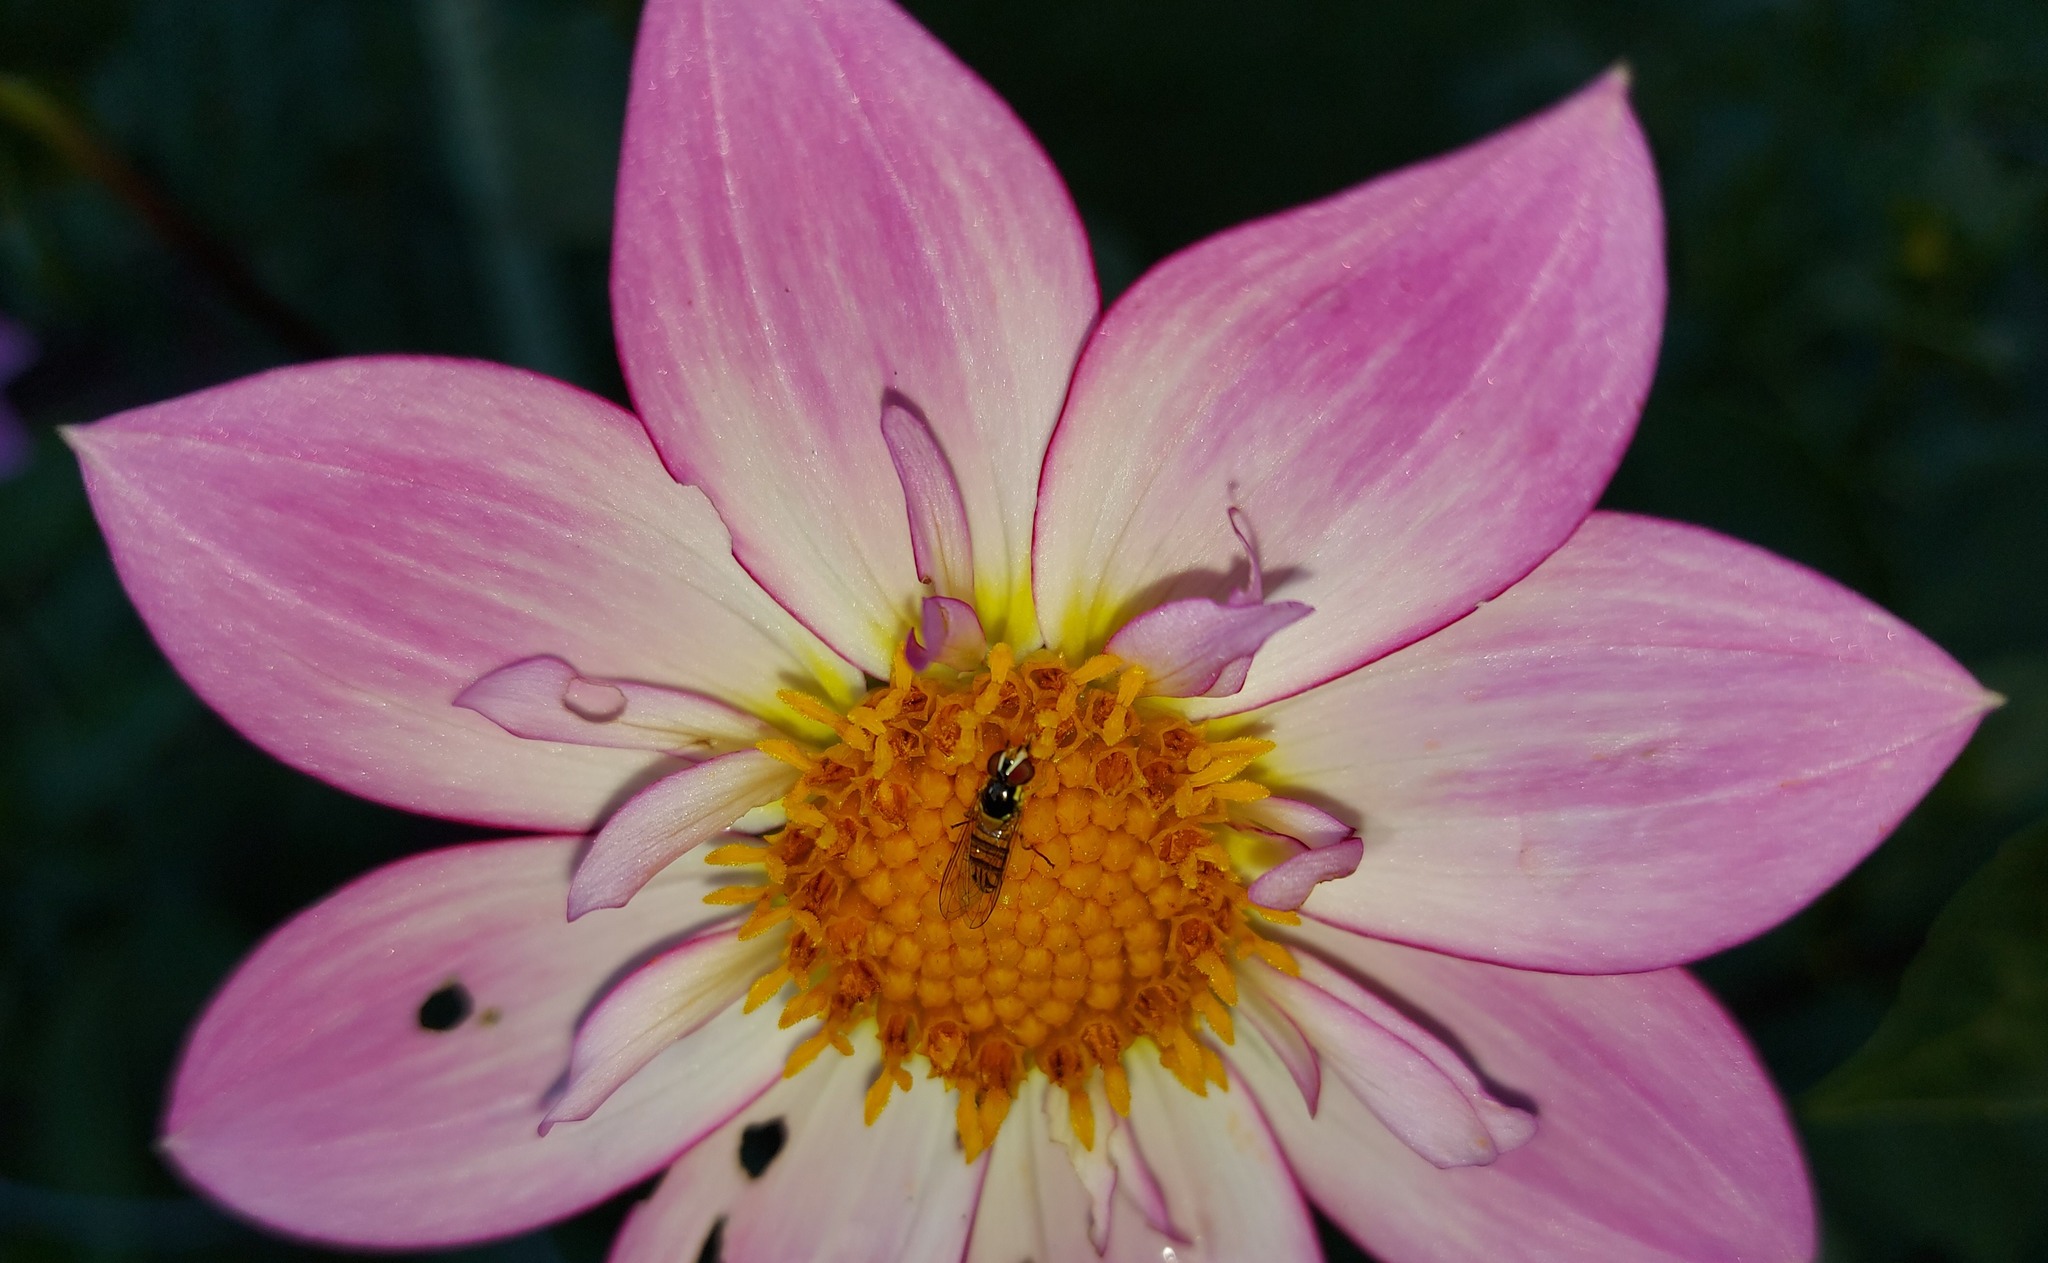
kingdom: Animalia
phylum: Arthropoda
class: Insecta
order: Diptera
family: Syrphidae
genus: Allograpta
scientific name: Allograpta obliqua
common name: Common oblique syrphid
